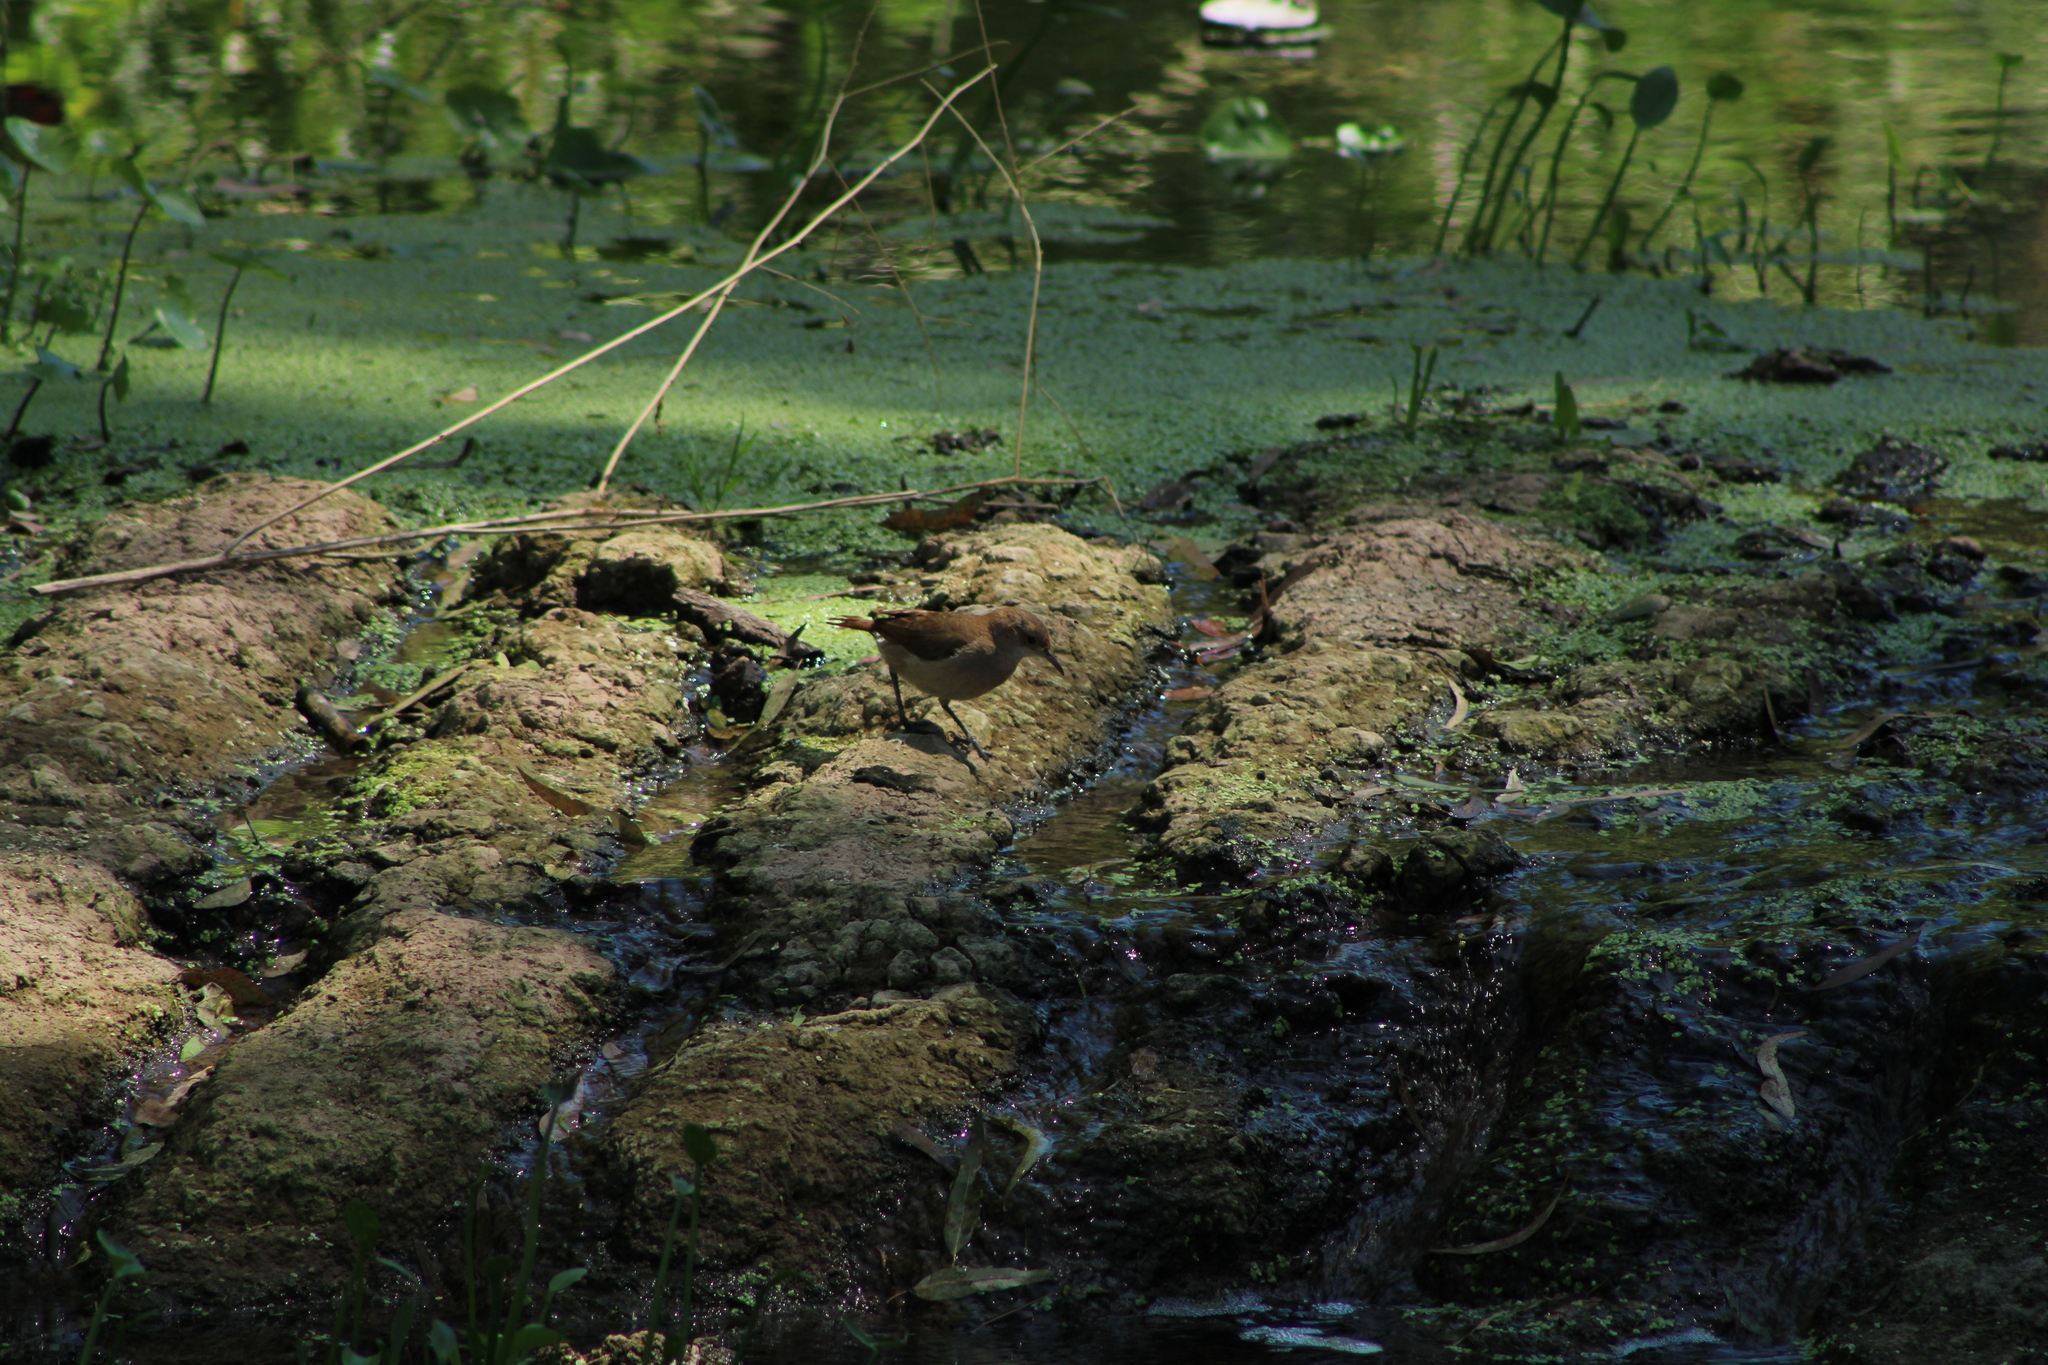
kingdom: Animalia
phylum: Chordata
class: Aves
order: Passeriformes
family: Furnariidae
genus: Furnarius
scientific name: Furnarius rufus
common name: Rufous hornero
